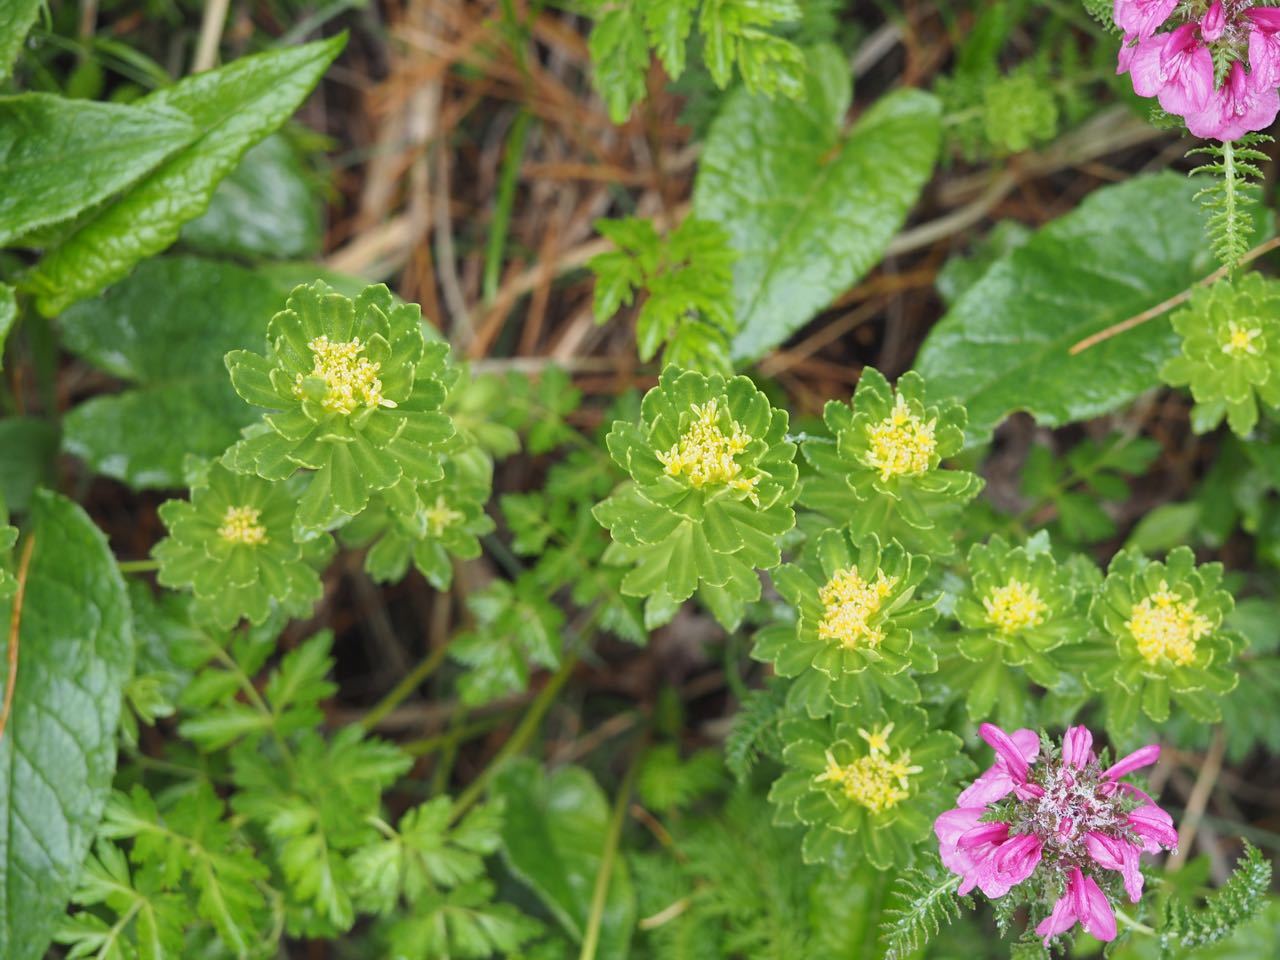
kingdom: Plantae
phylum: Tracheophyta
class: Magnoliopsida
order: Saxifragales
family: Crassulaceae
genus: Rhodiola
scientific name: Rhodiola ishidae
